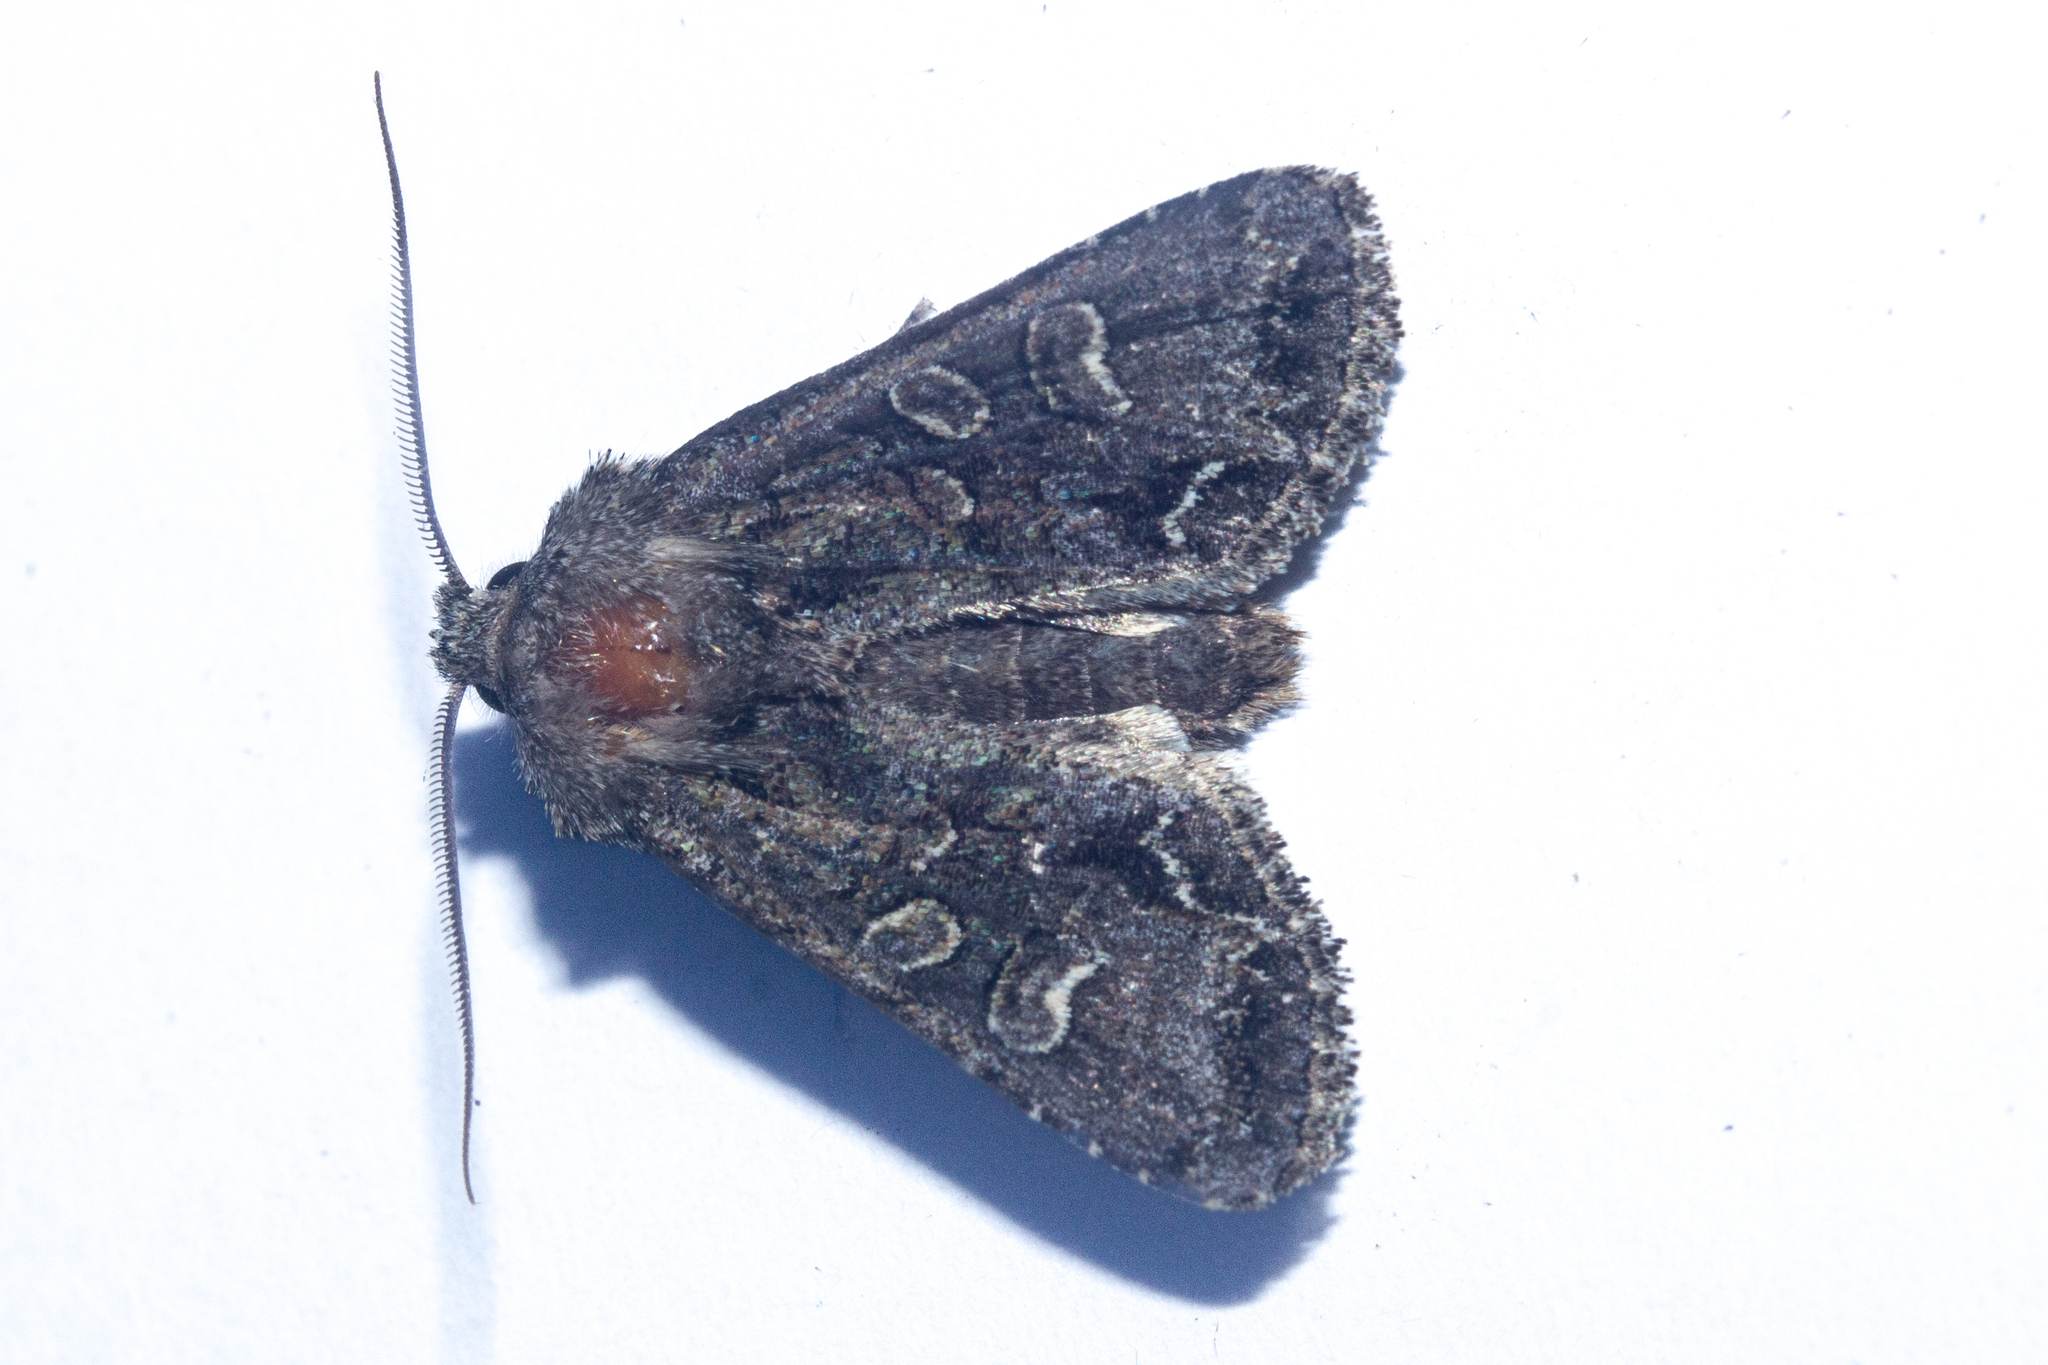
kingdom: Animalia
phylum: Arthropoda
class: Insecta
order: Lepidoptera
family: Noctuidae
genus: Ichneutica
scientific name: Ichneutica skelloni
